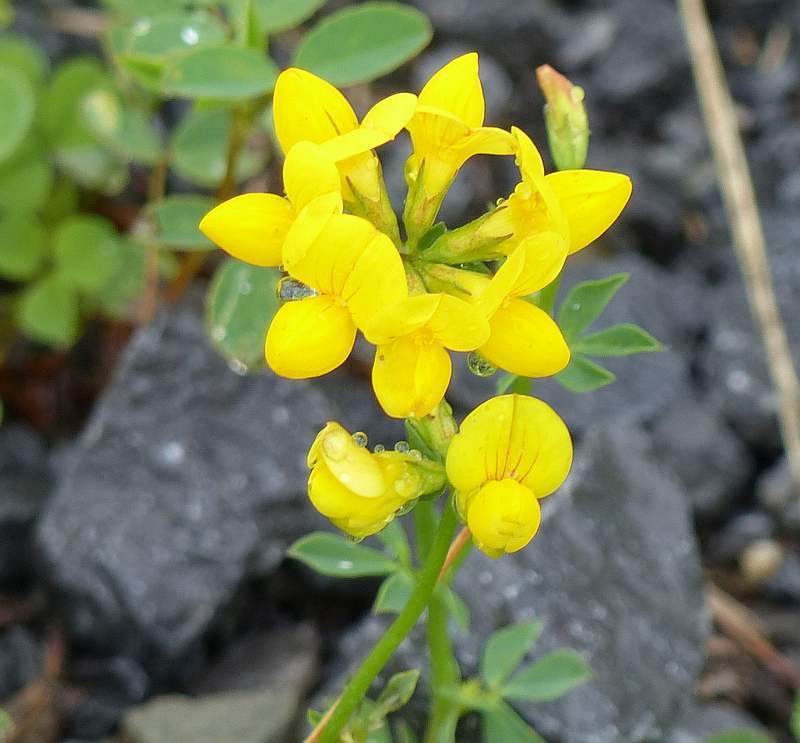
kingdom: Plantae
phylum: Tracheophyta
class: Magnoliopsida
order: Fabales
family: Fabaceae
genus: Lotus
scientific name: Lotus corniculatus
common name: Common bird's-foot-trefoil
